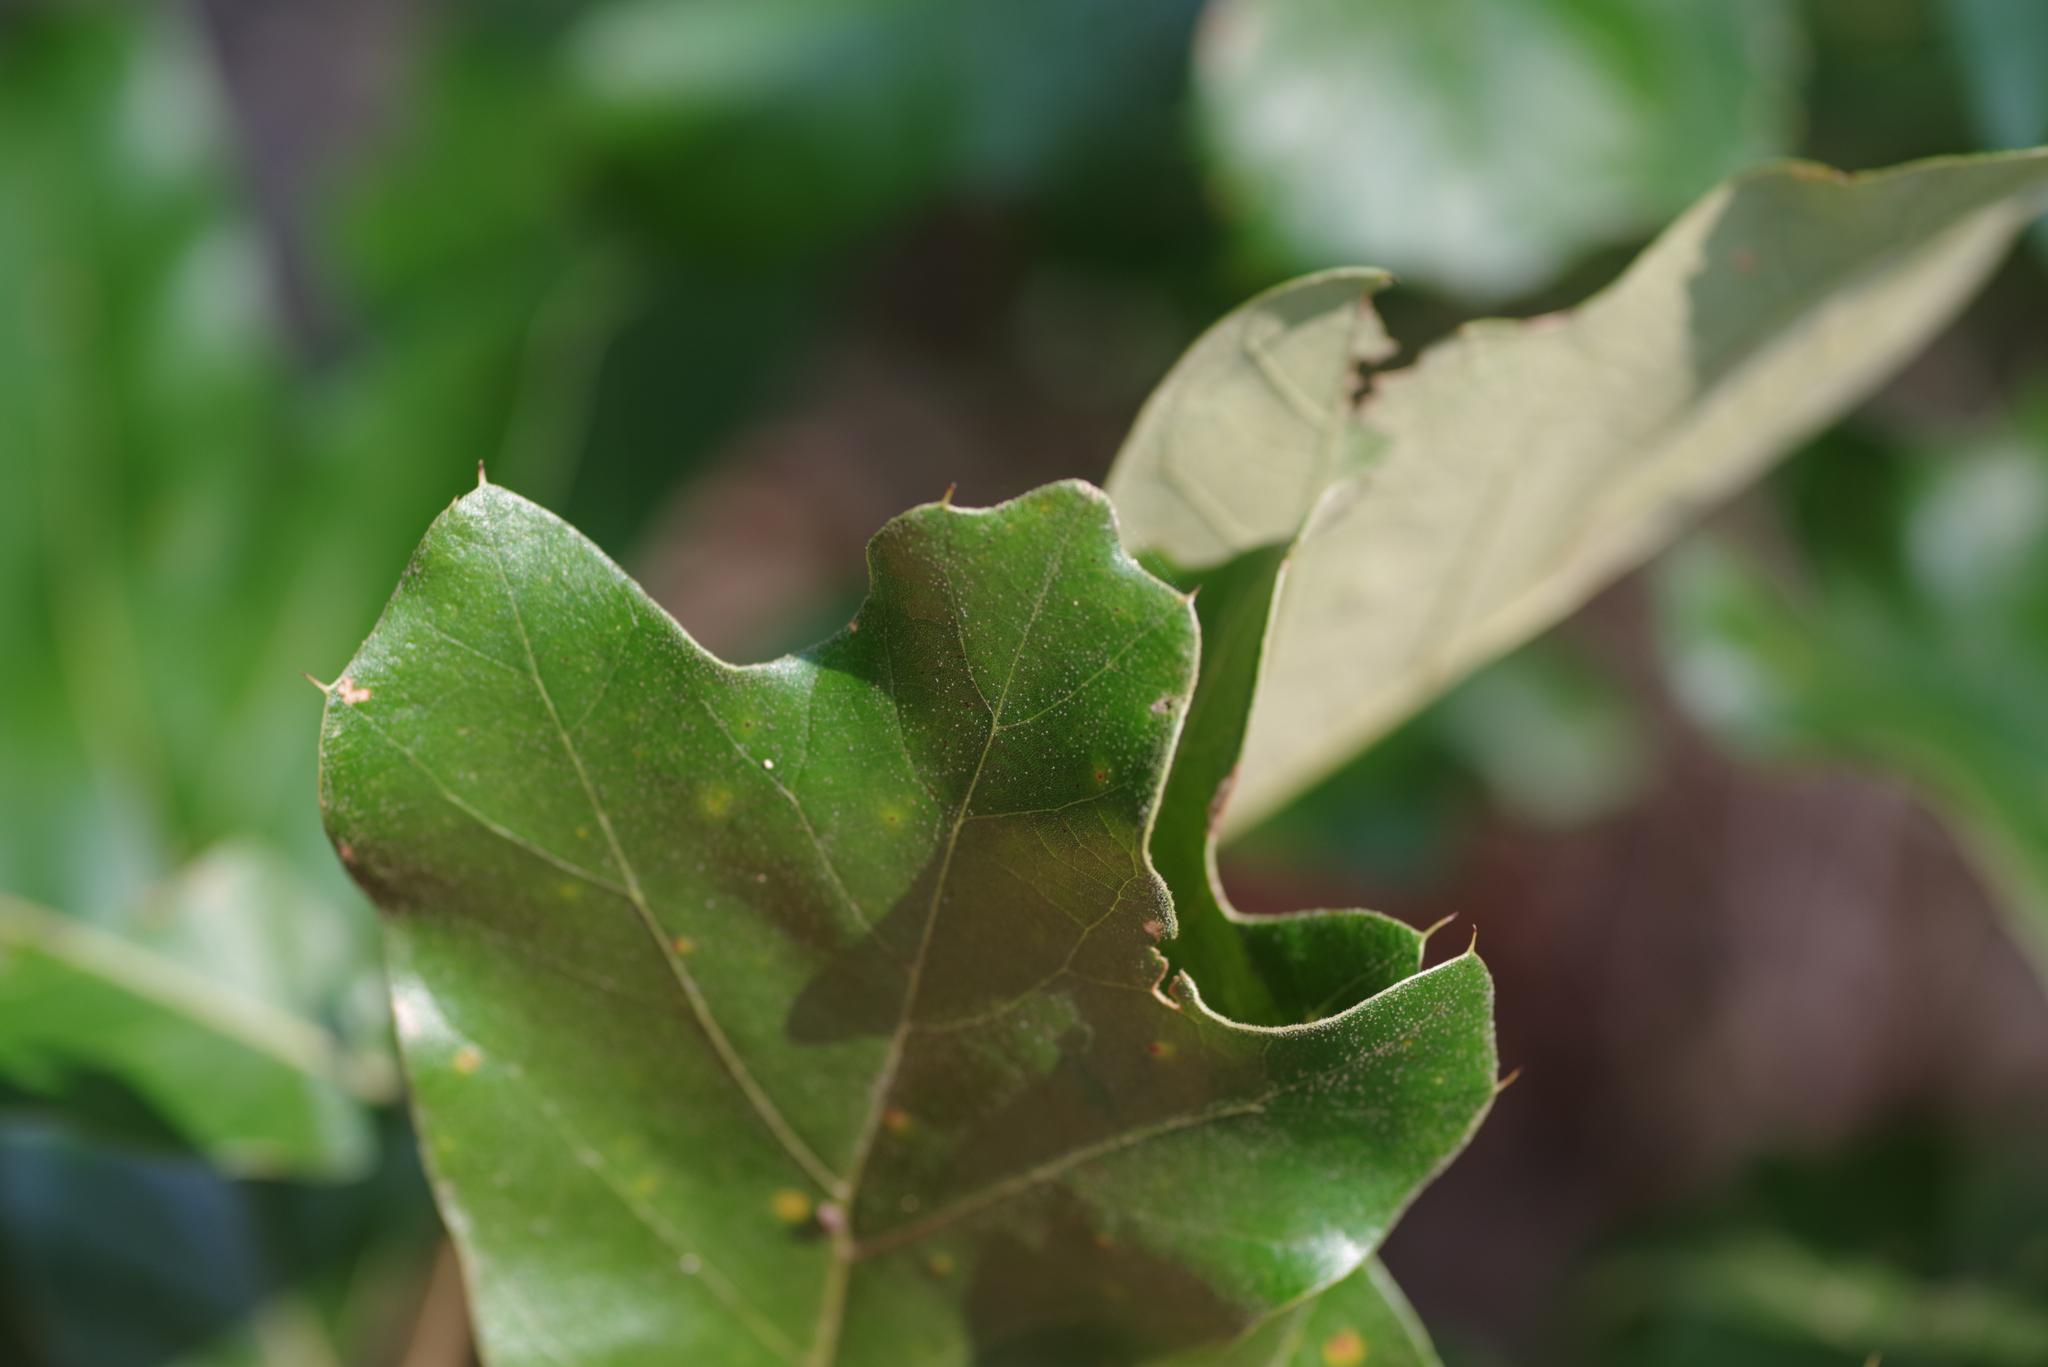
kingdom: Plantae
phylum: Tracheophyta
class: Magnoliopsida
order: Fagales
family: Fagaceae
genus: Quercus
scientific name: Quercus falcata
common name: Southern red oak
